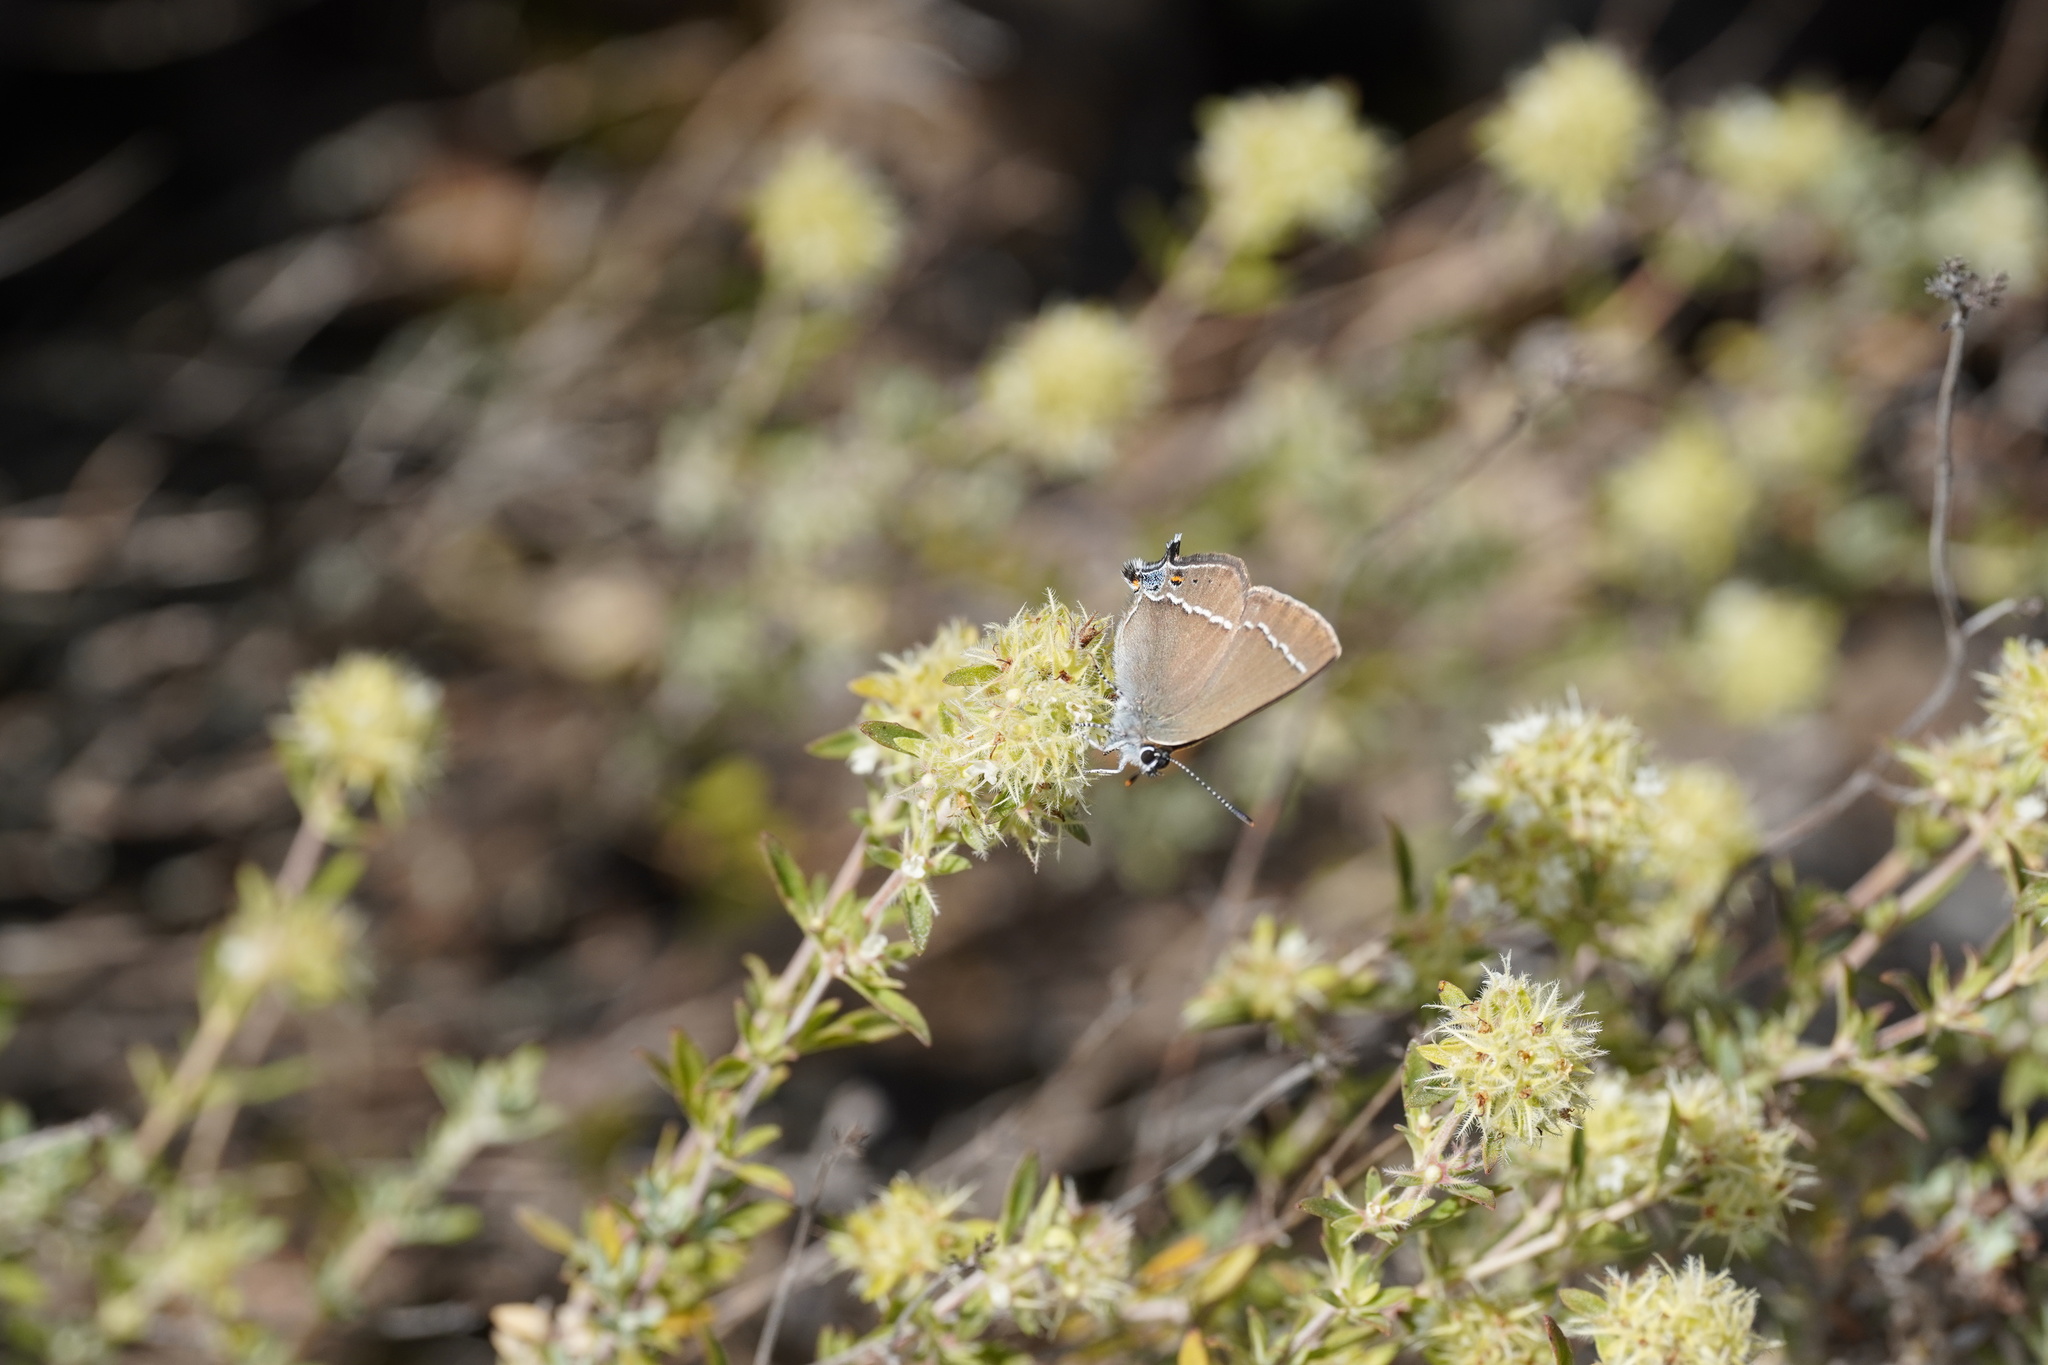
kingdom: Animalia
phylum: Arthropoda
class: Insecta
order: Lepidoptera
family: Lycaenidae
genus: Tuttiola
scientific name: Tuttiola spini
